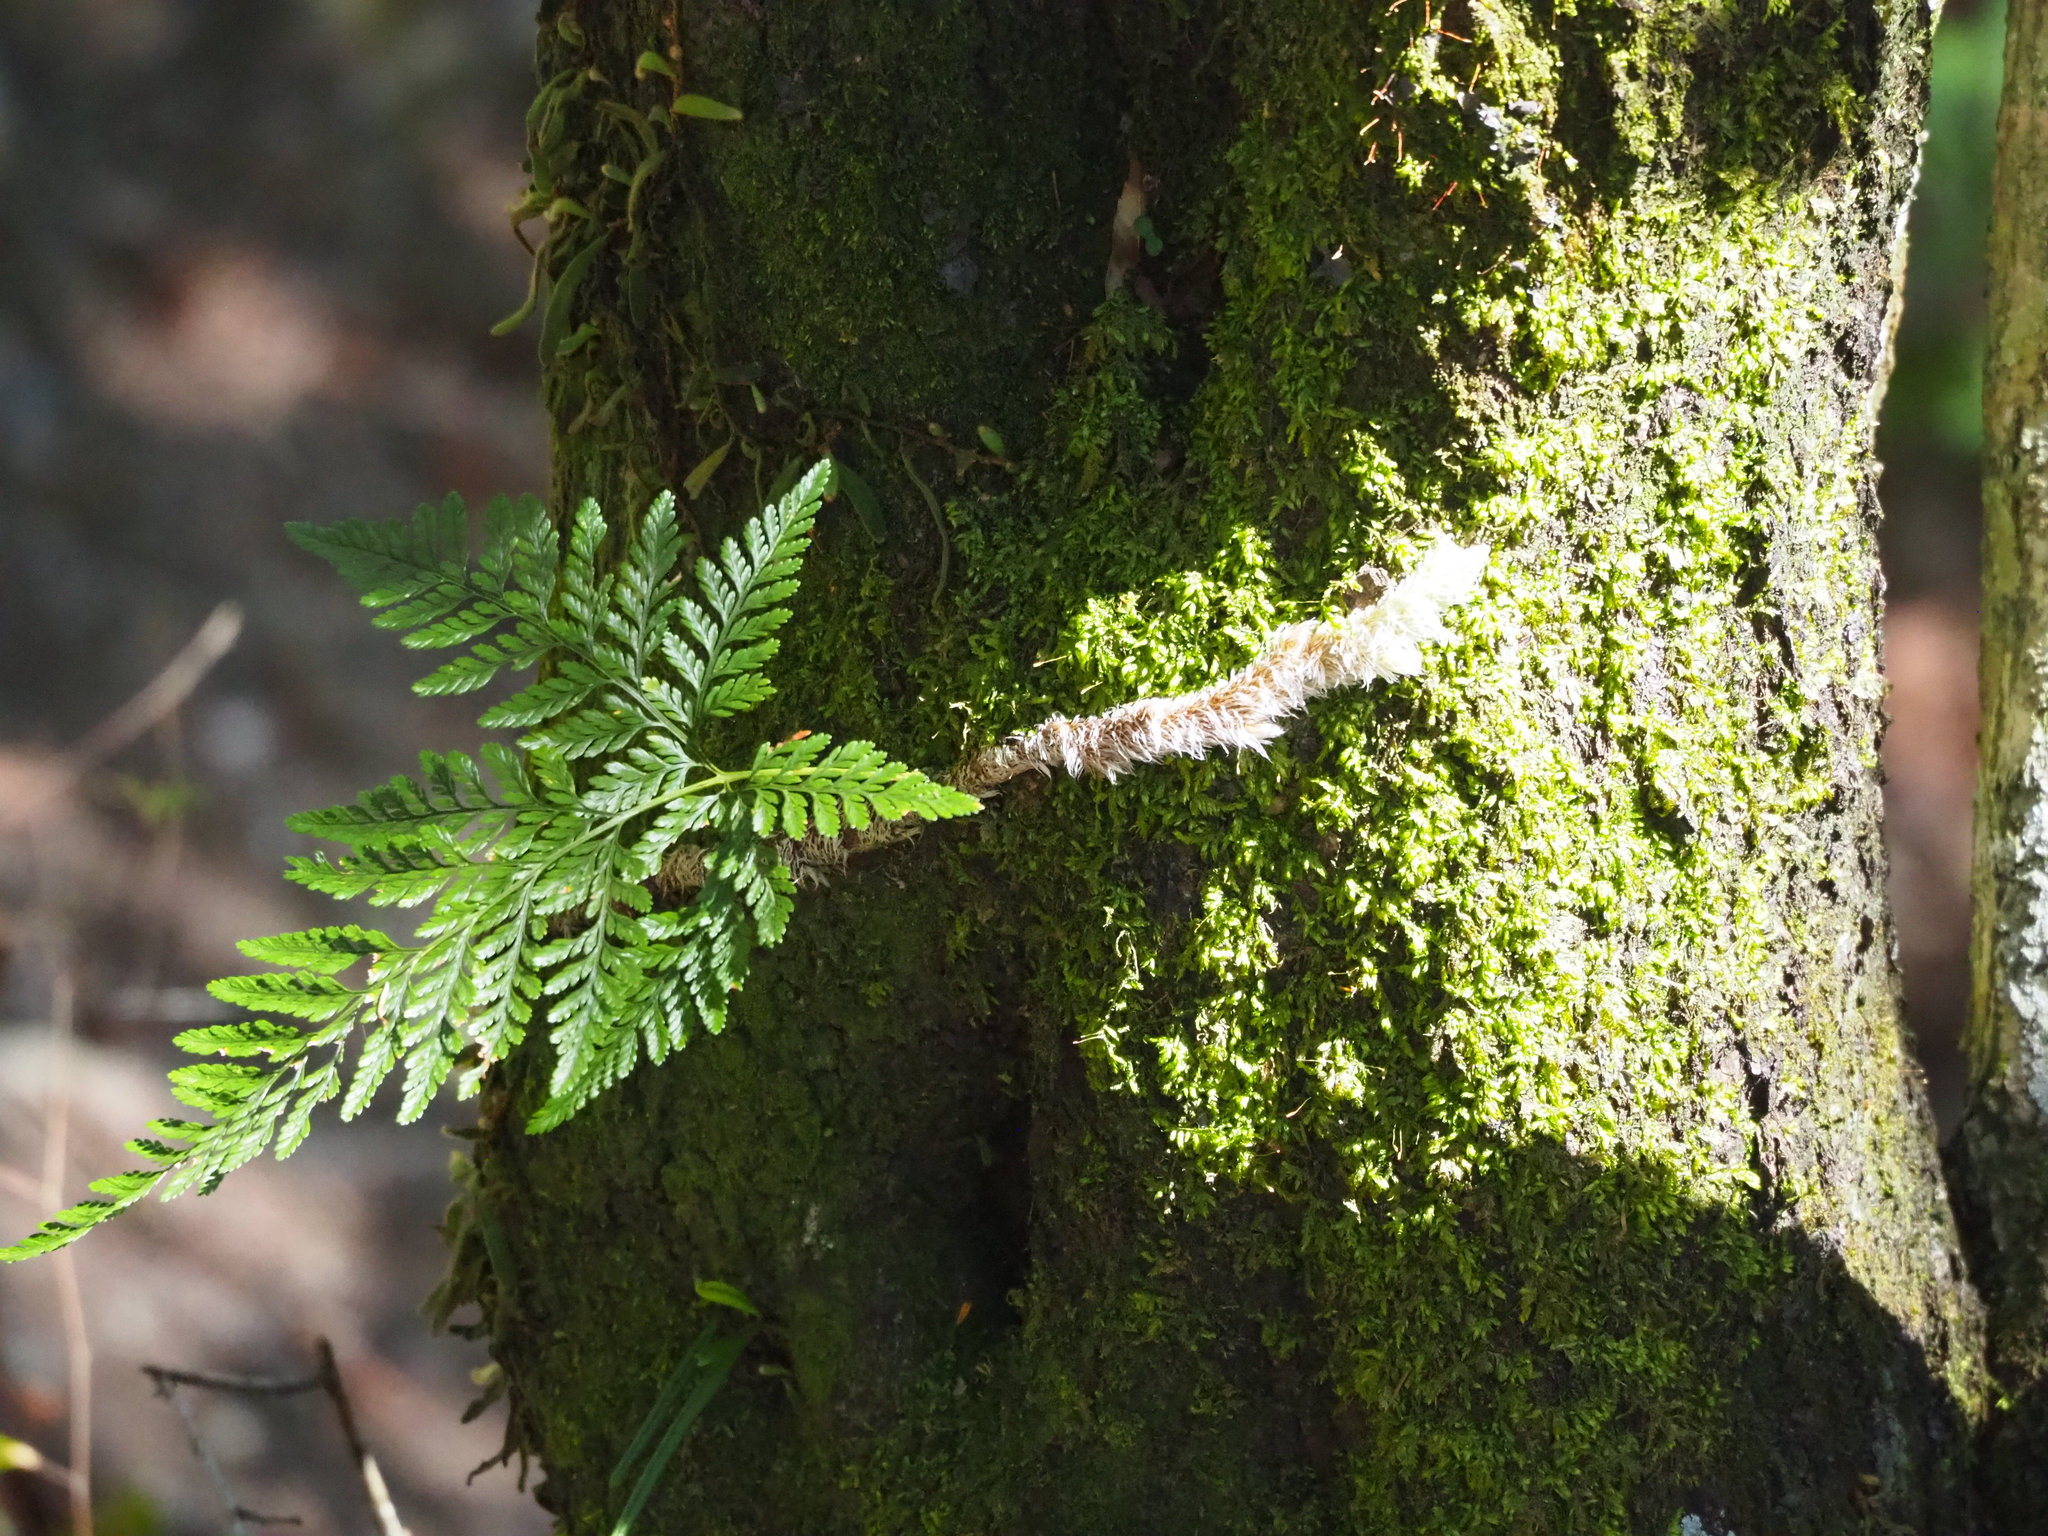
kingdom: Plantae
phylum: Tracheophyta
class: Polypodiopsida
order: Polypodiales
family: Davalliaceae
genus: Davallia
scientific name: Davallia griffithiana
